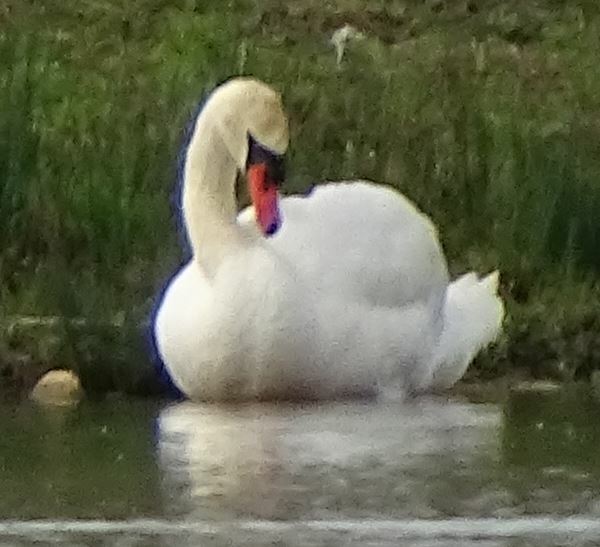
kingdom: Animalia
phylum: Chordata
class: Aves
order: Anseriformes
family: Anatidae
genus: Cygnus
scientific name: Cygnus olor
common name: Mute swan
